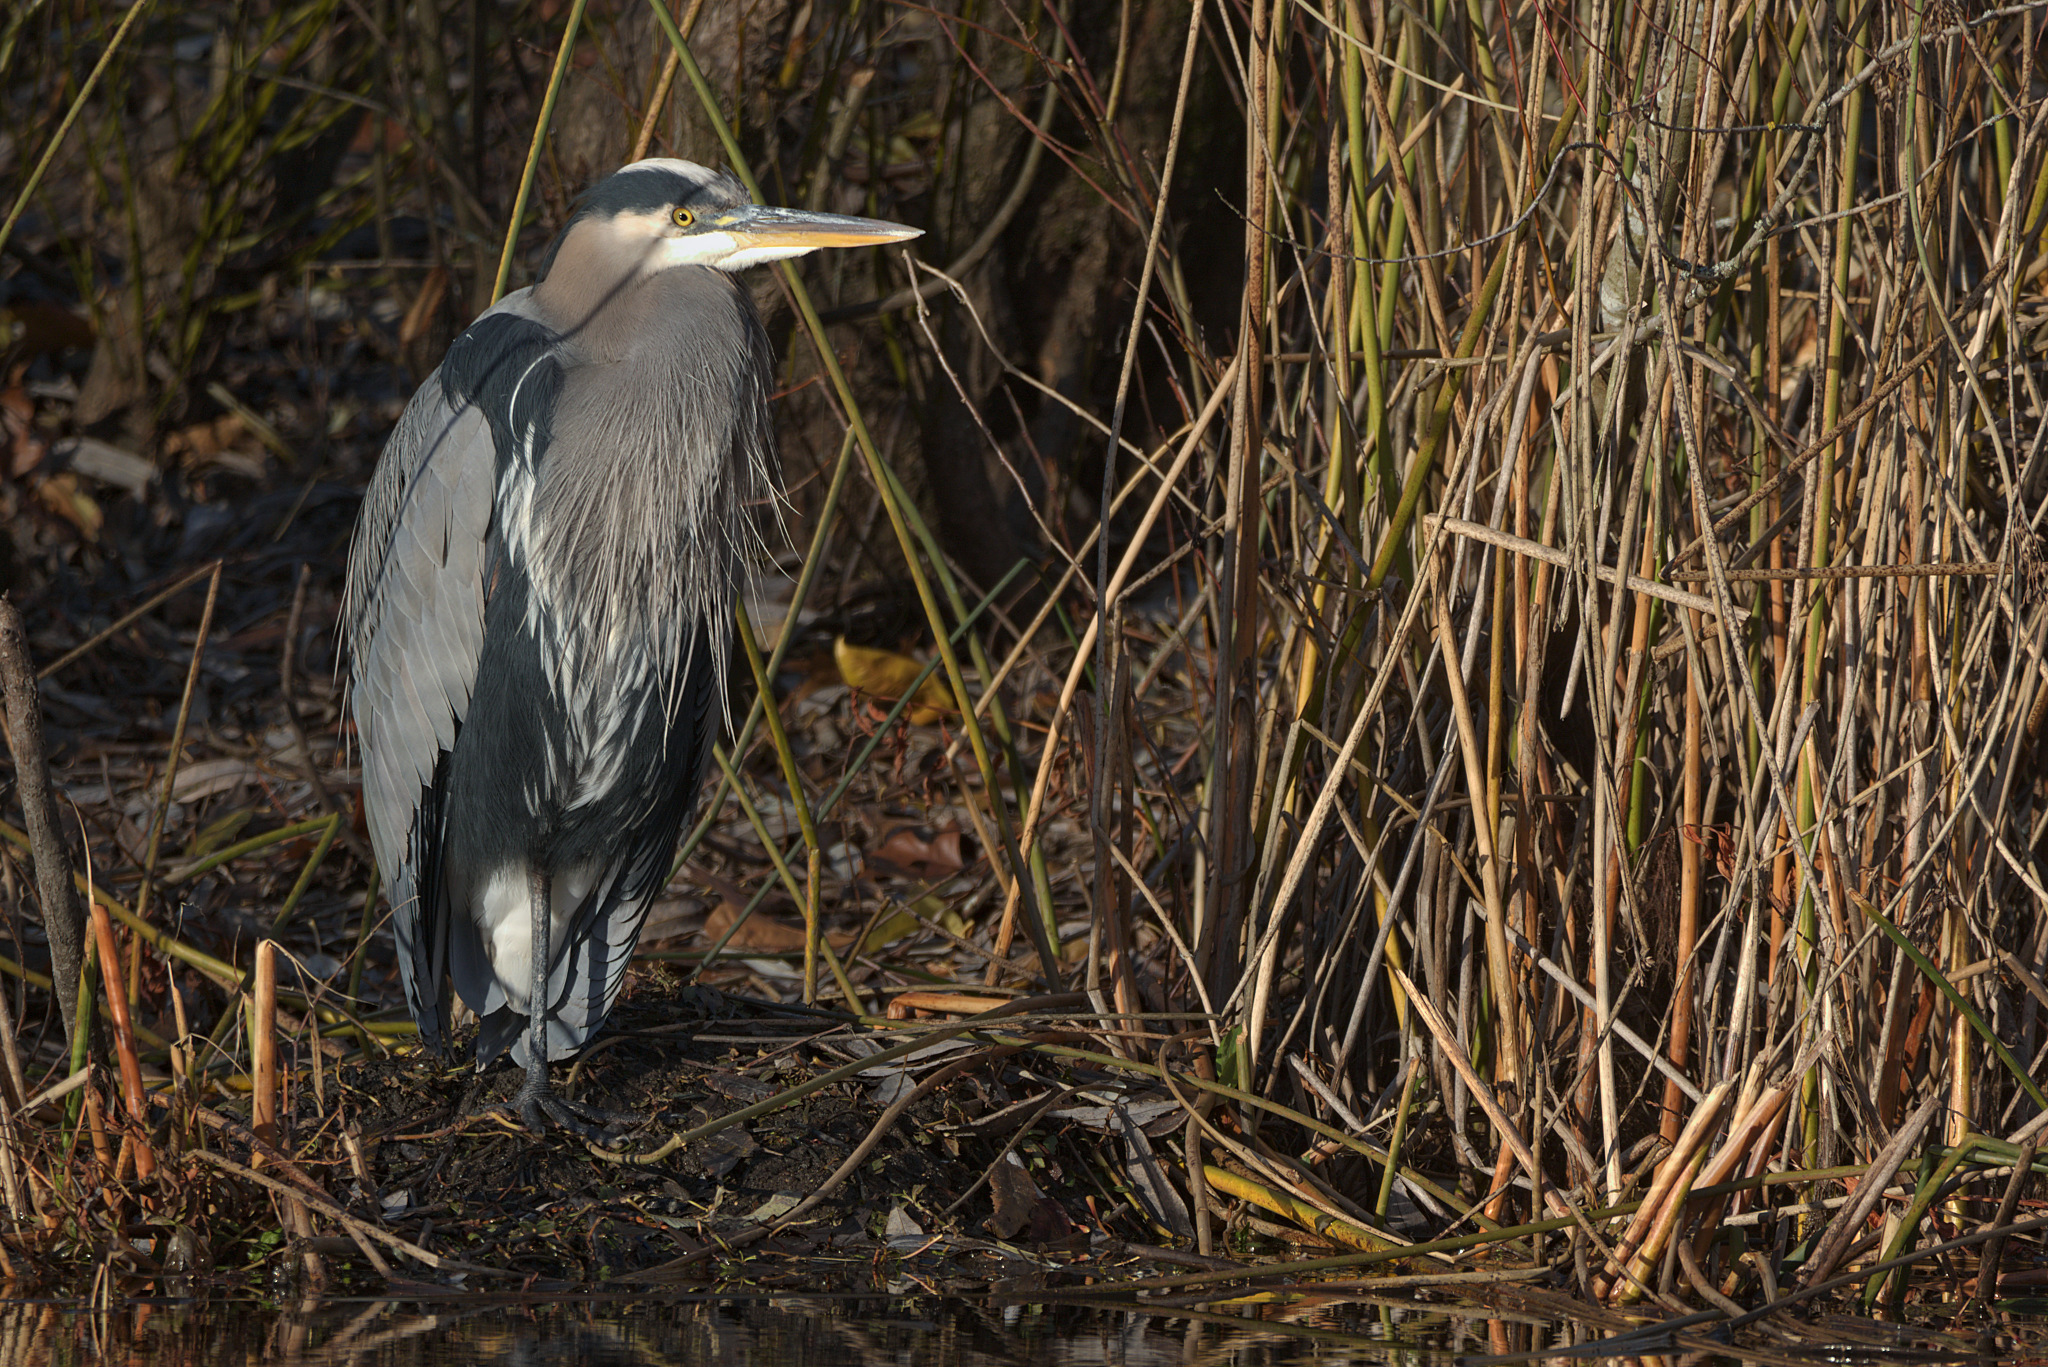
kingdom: Animalia
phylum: Chordata
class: Aves
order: Pelecaniformes
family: Ardeidae
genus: Ardea
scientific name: Ardea herodias
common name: Great blue heron
